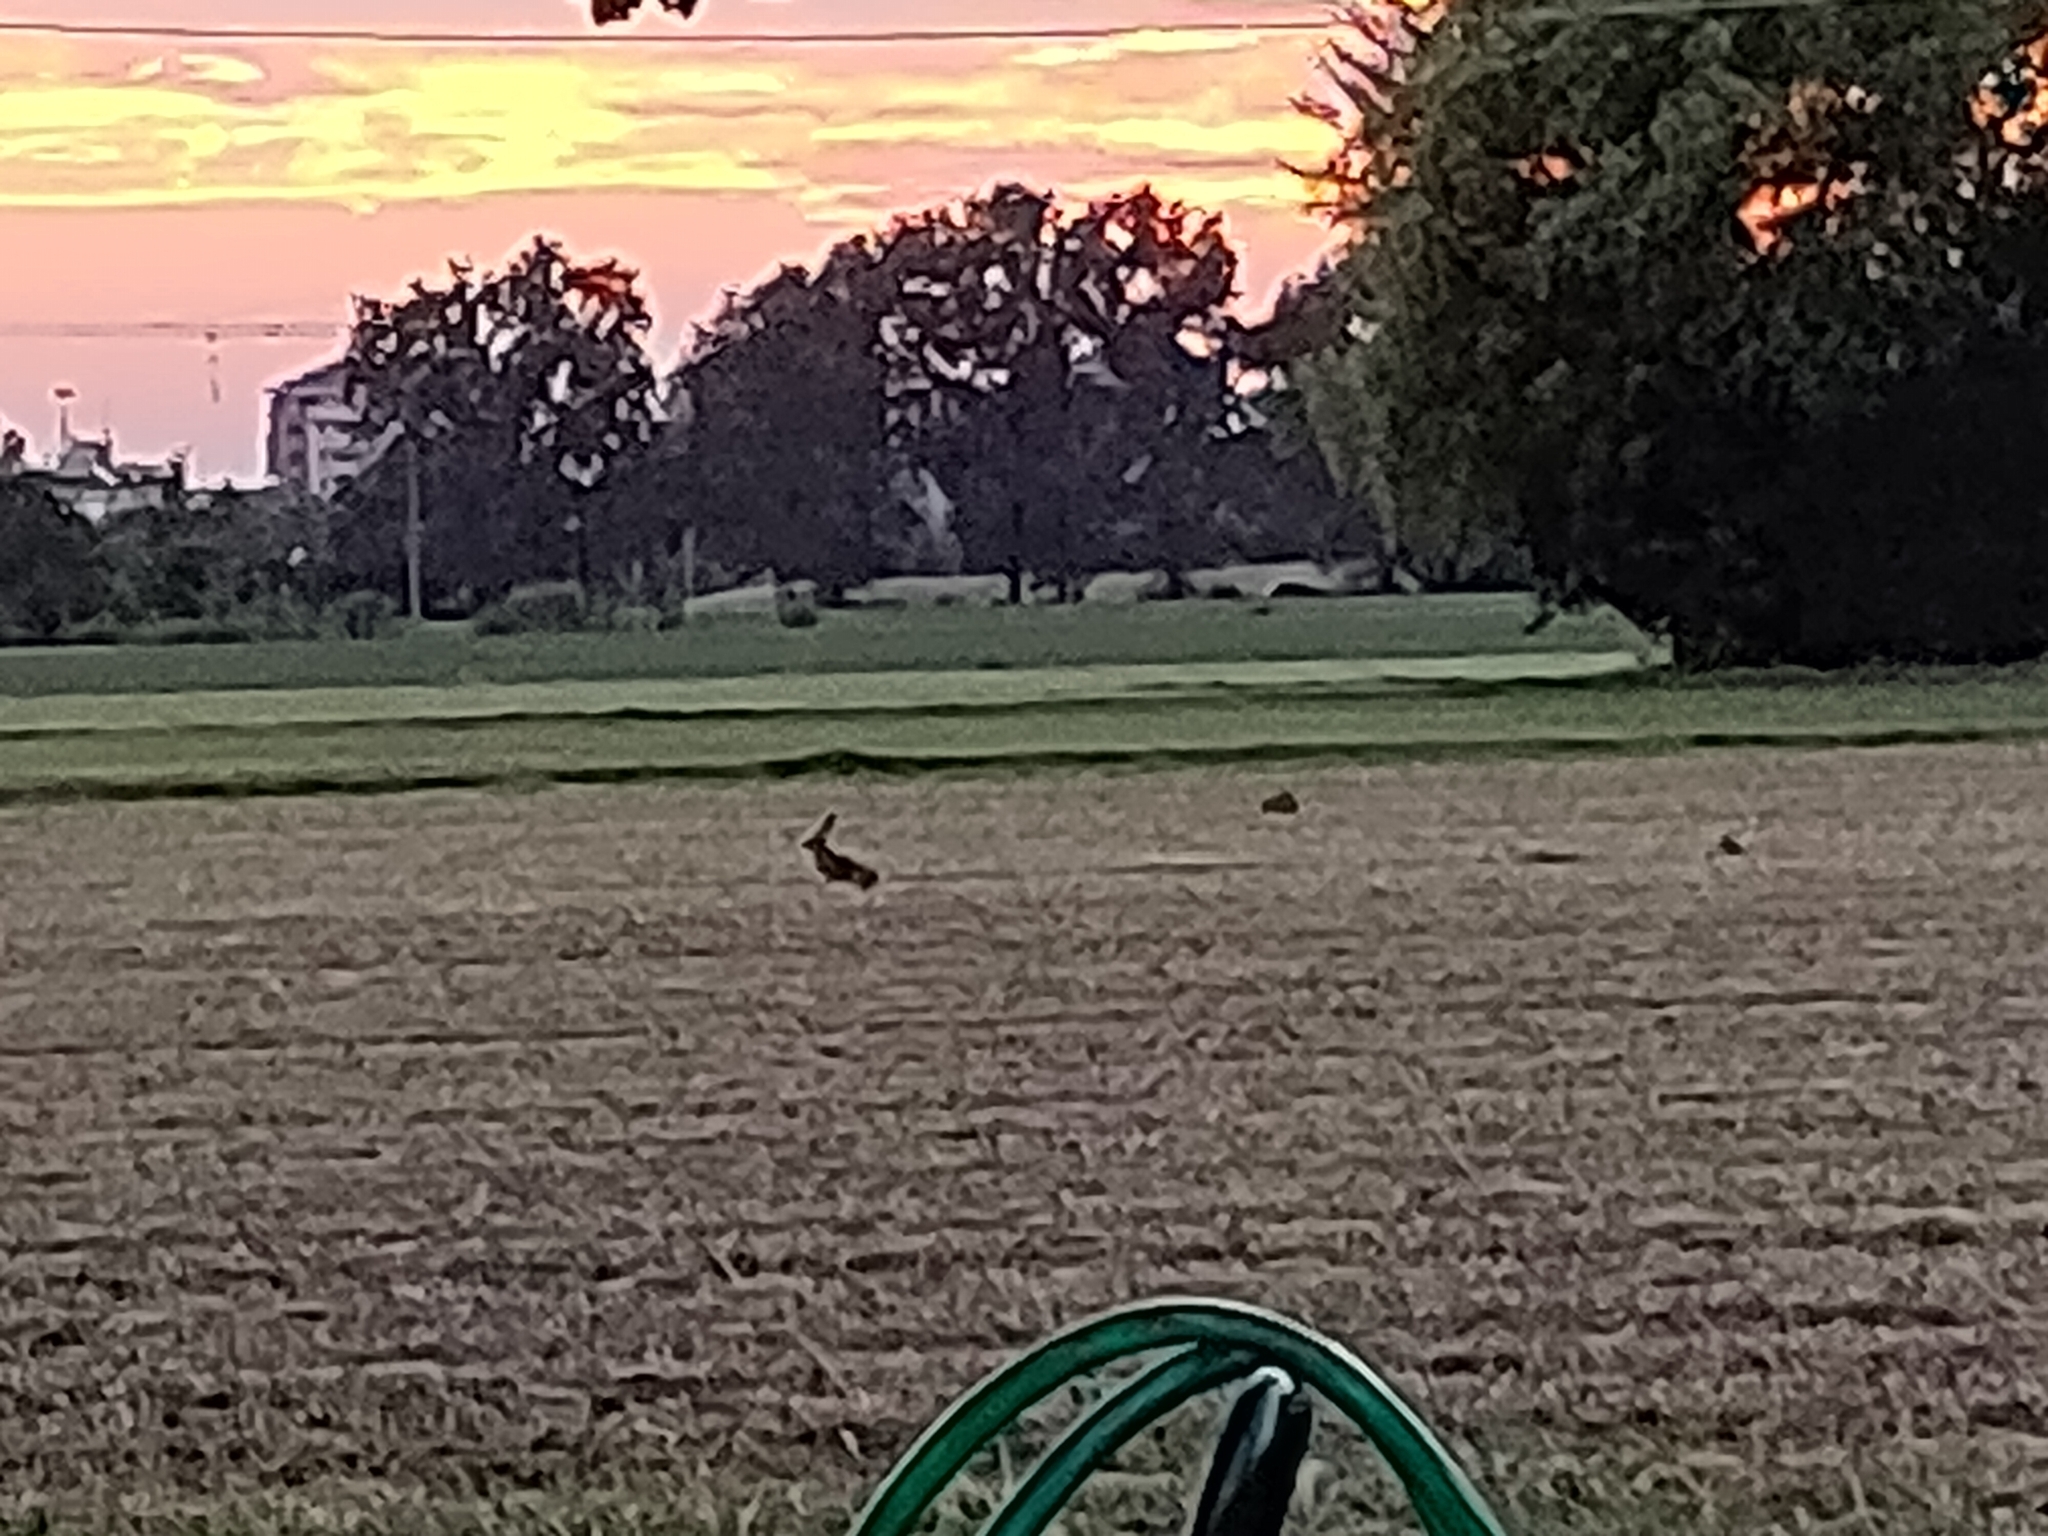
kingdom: Animalia
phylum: Chordata
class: Mammalia
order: Lagomorpha
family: Leporidae
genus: Lepus
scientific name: Lepus europaeus
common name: European hare
